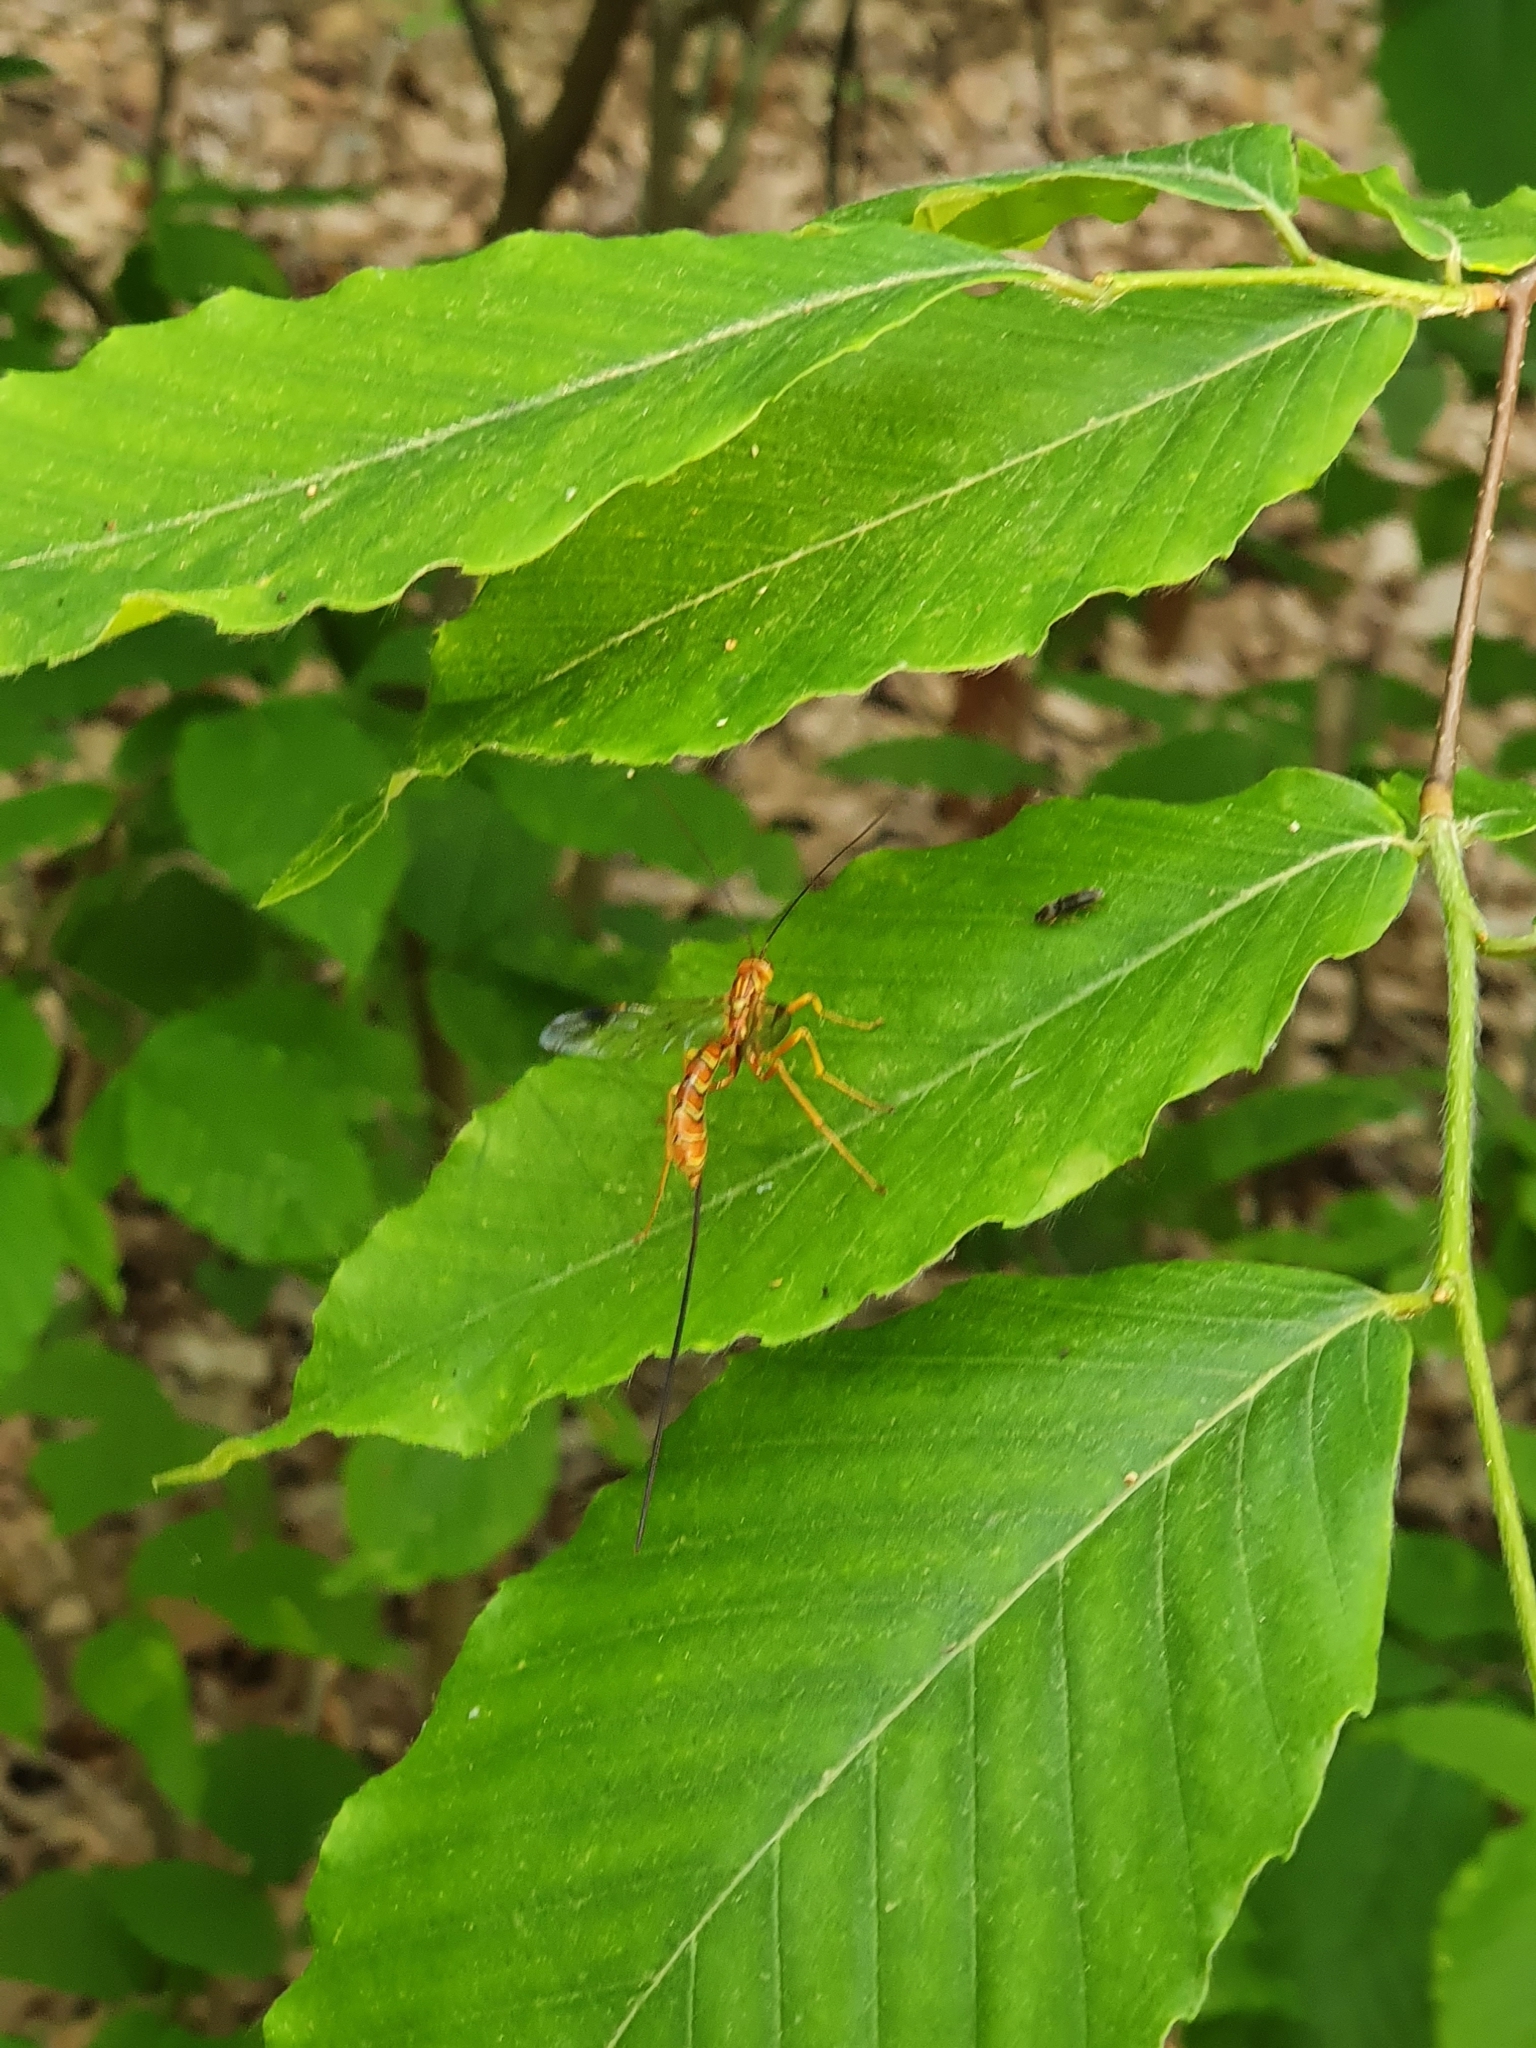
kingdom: Animalia
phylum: Arthropoda
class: Insecta
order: Hymenoptera
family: Ichneumonidae
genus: Megarhyssa
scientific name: Megarhyssa greenei
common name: Greene's giant ichneumonid wasp
